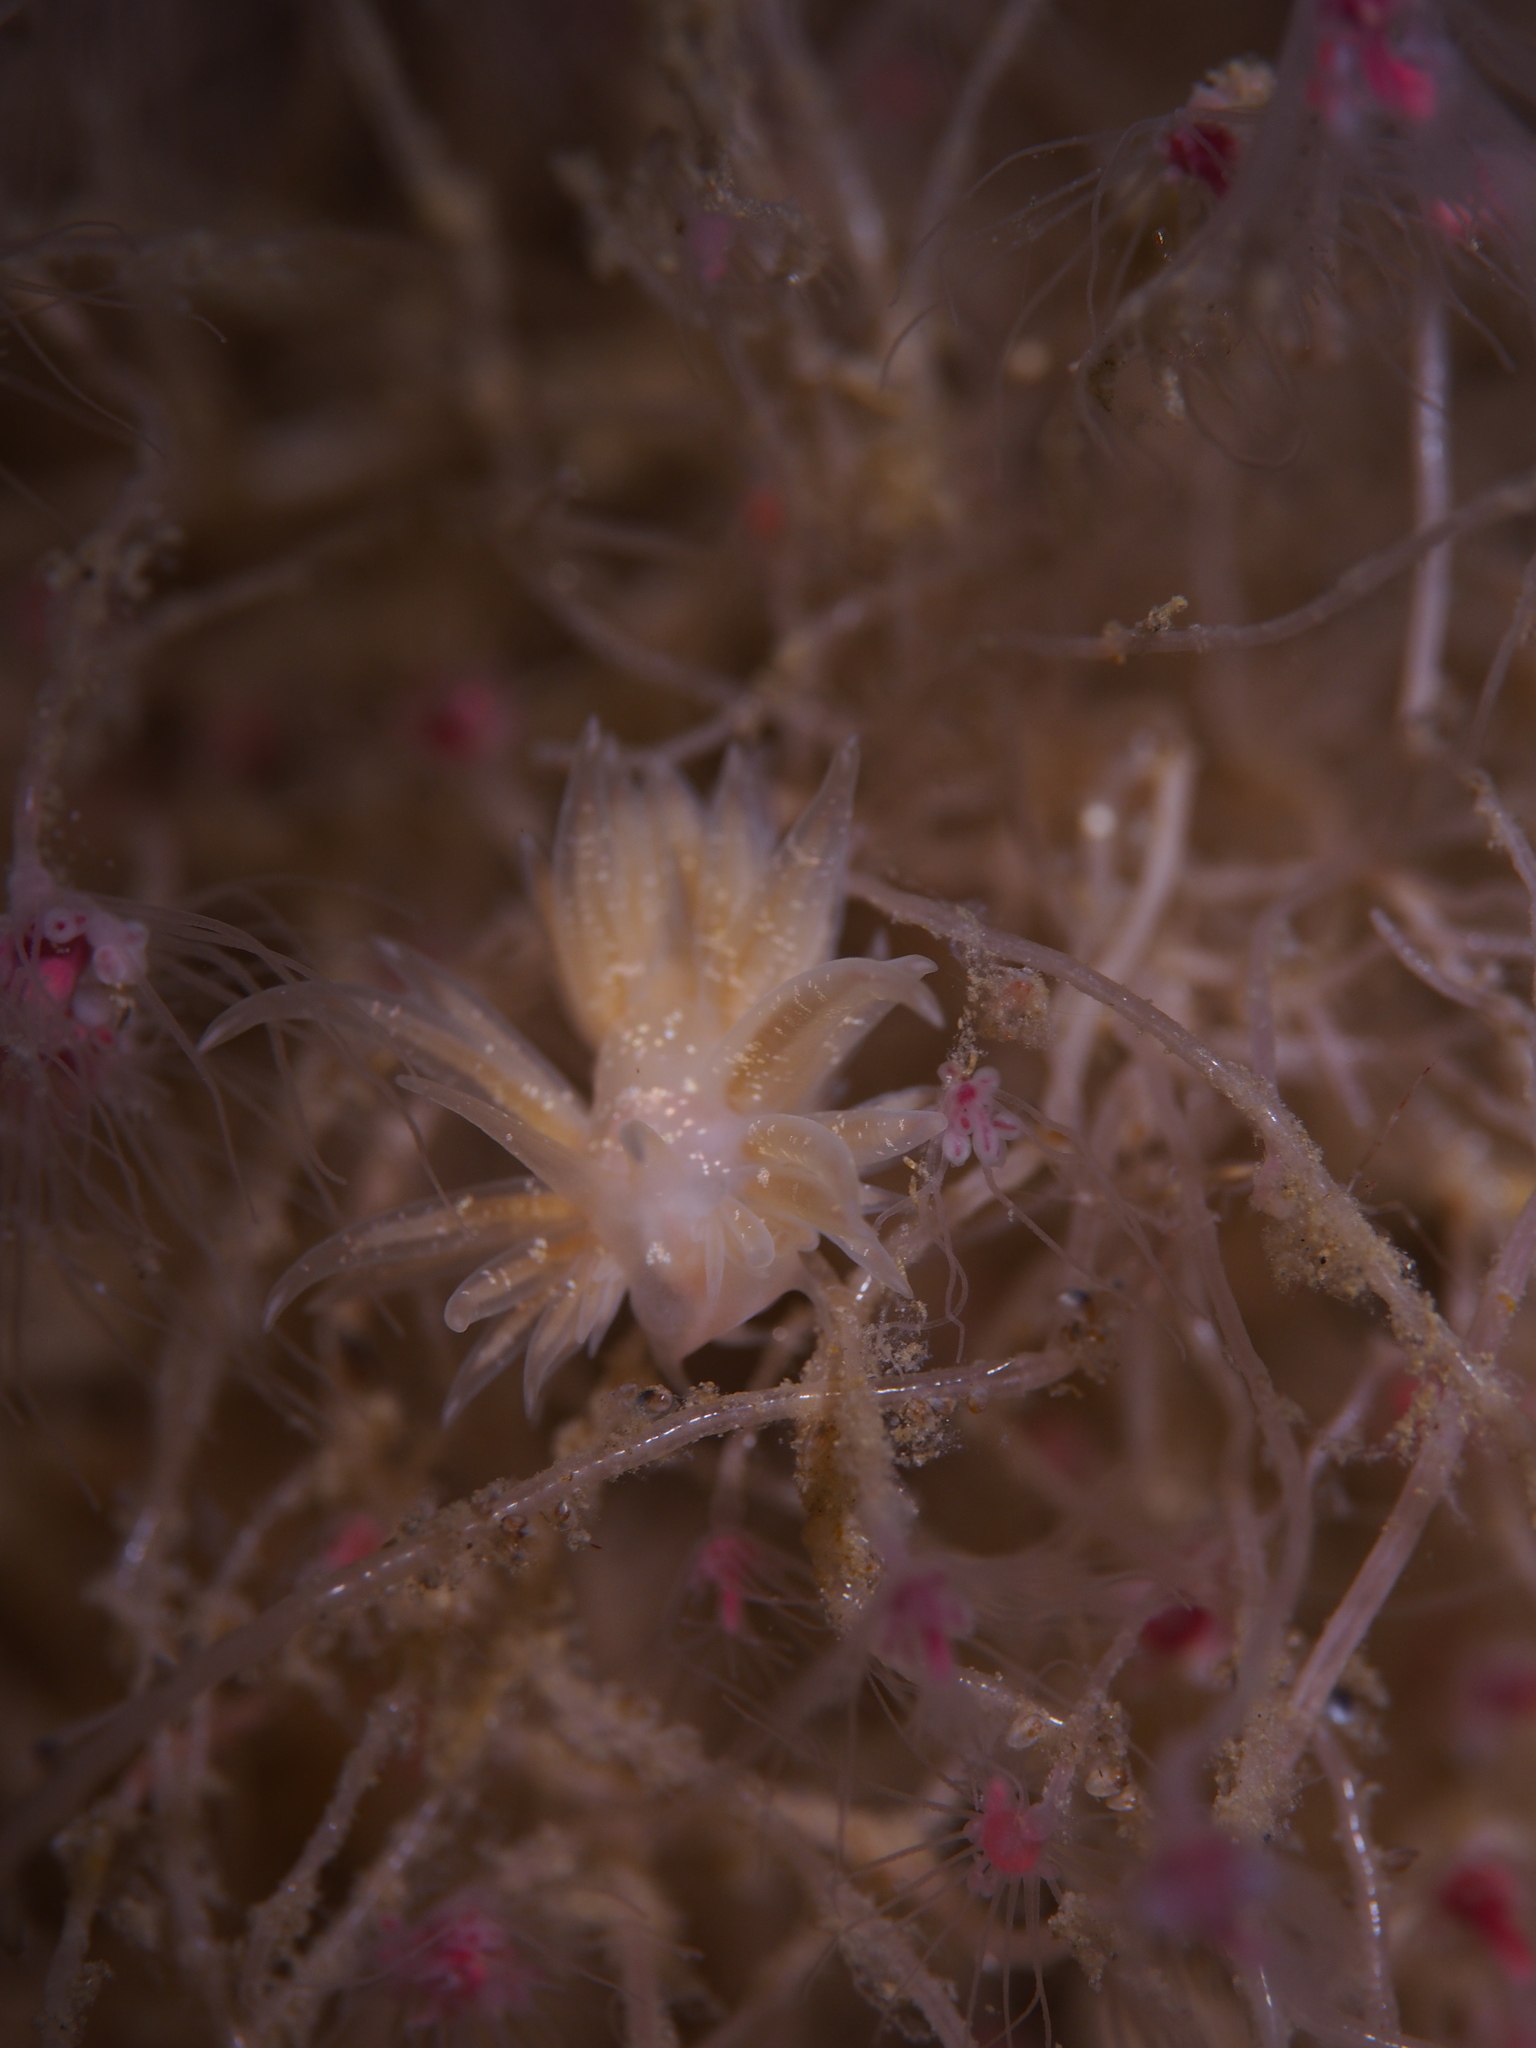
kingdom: Animalia
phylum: Mollusca
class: Gastropoda
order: Nudibranchia
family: Cumanotidae
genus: Cumanotus
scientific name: Cumanotus beaumonti
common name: Polyp aeolis
